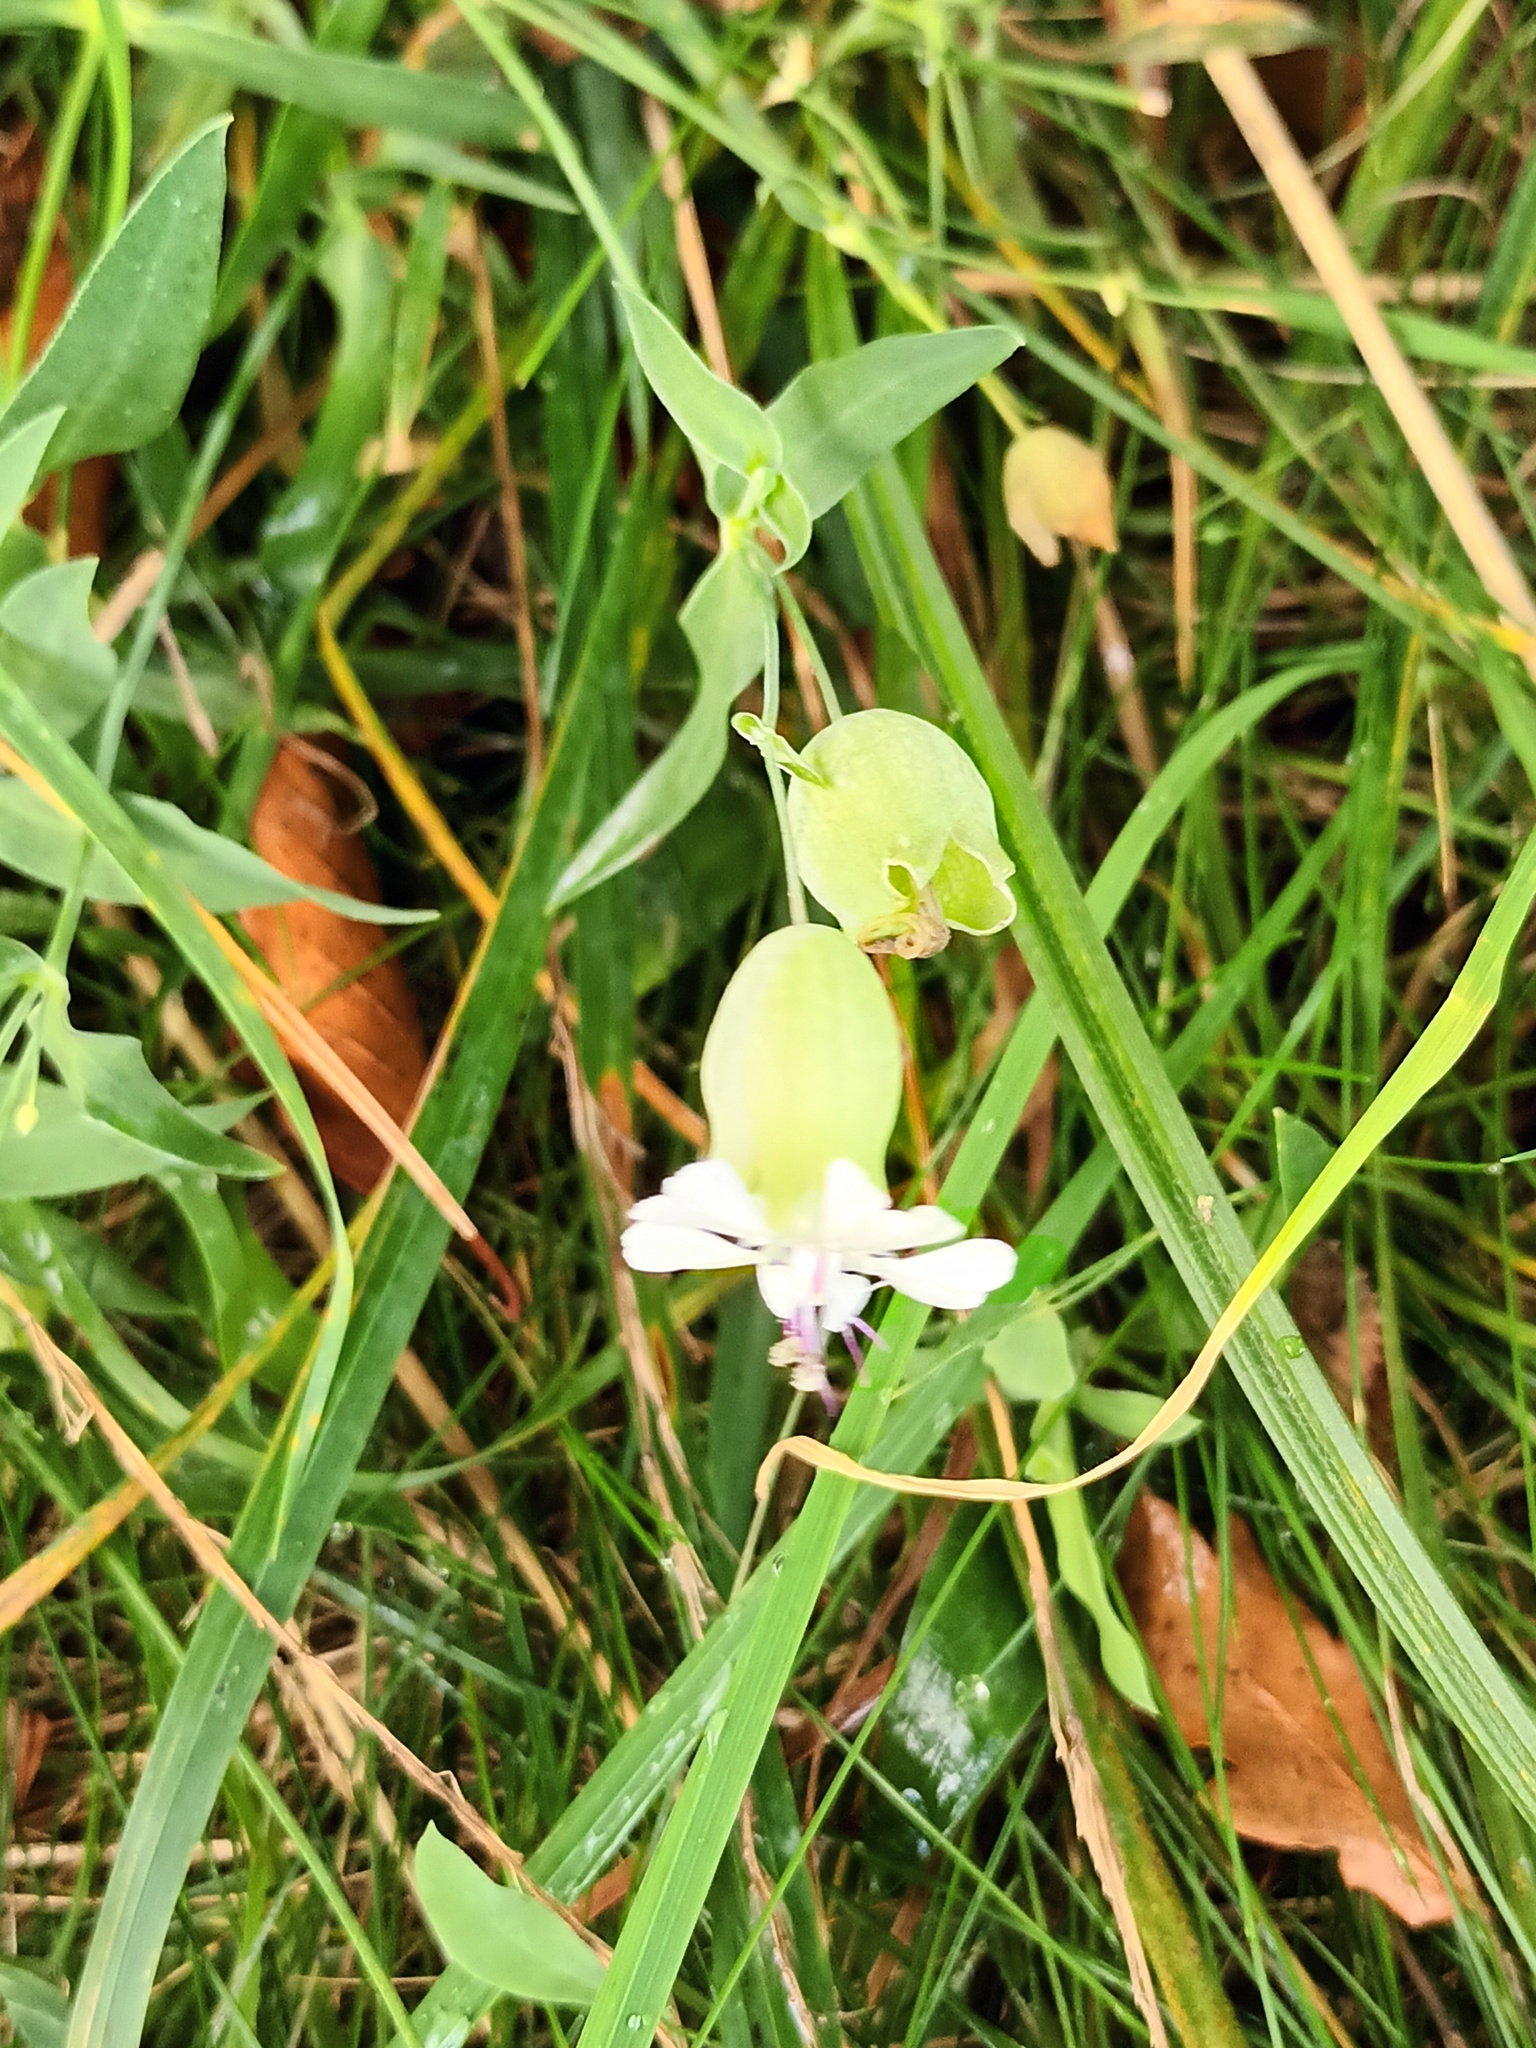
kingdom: Plantae
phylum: Tracheophyta
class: Magnoliopsida
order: Caryophyllales
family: Caryophyllaceae
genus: Silene
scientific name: Silene vulgaris
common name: Bladder campion
